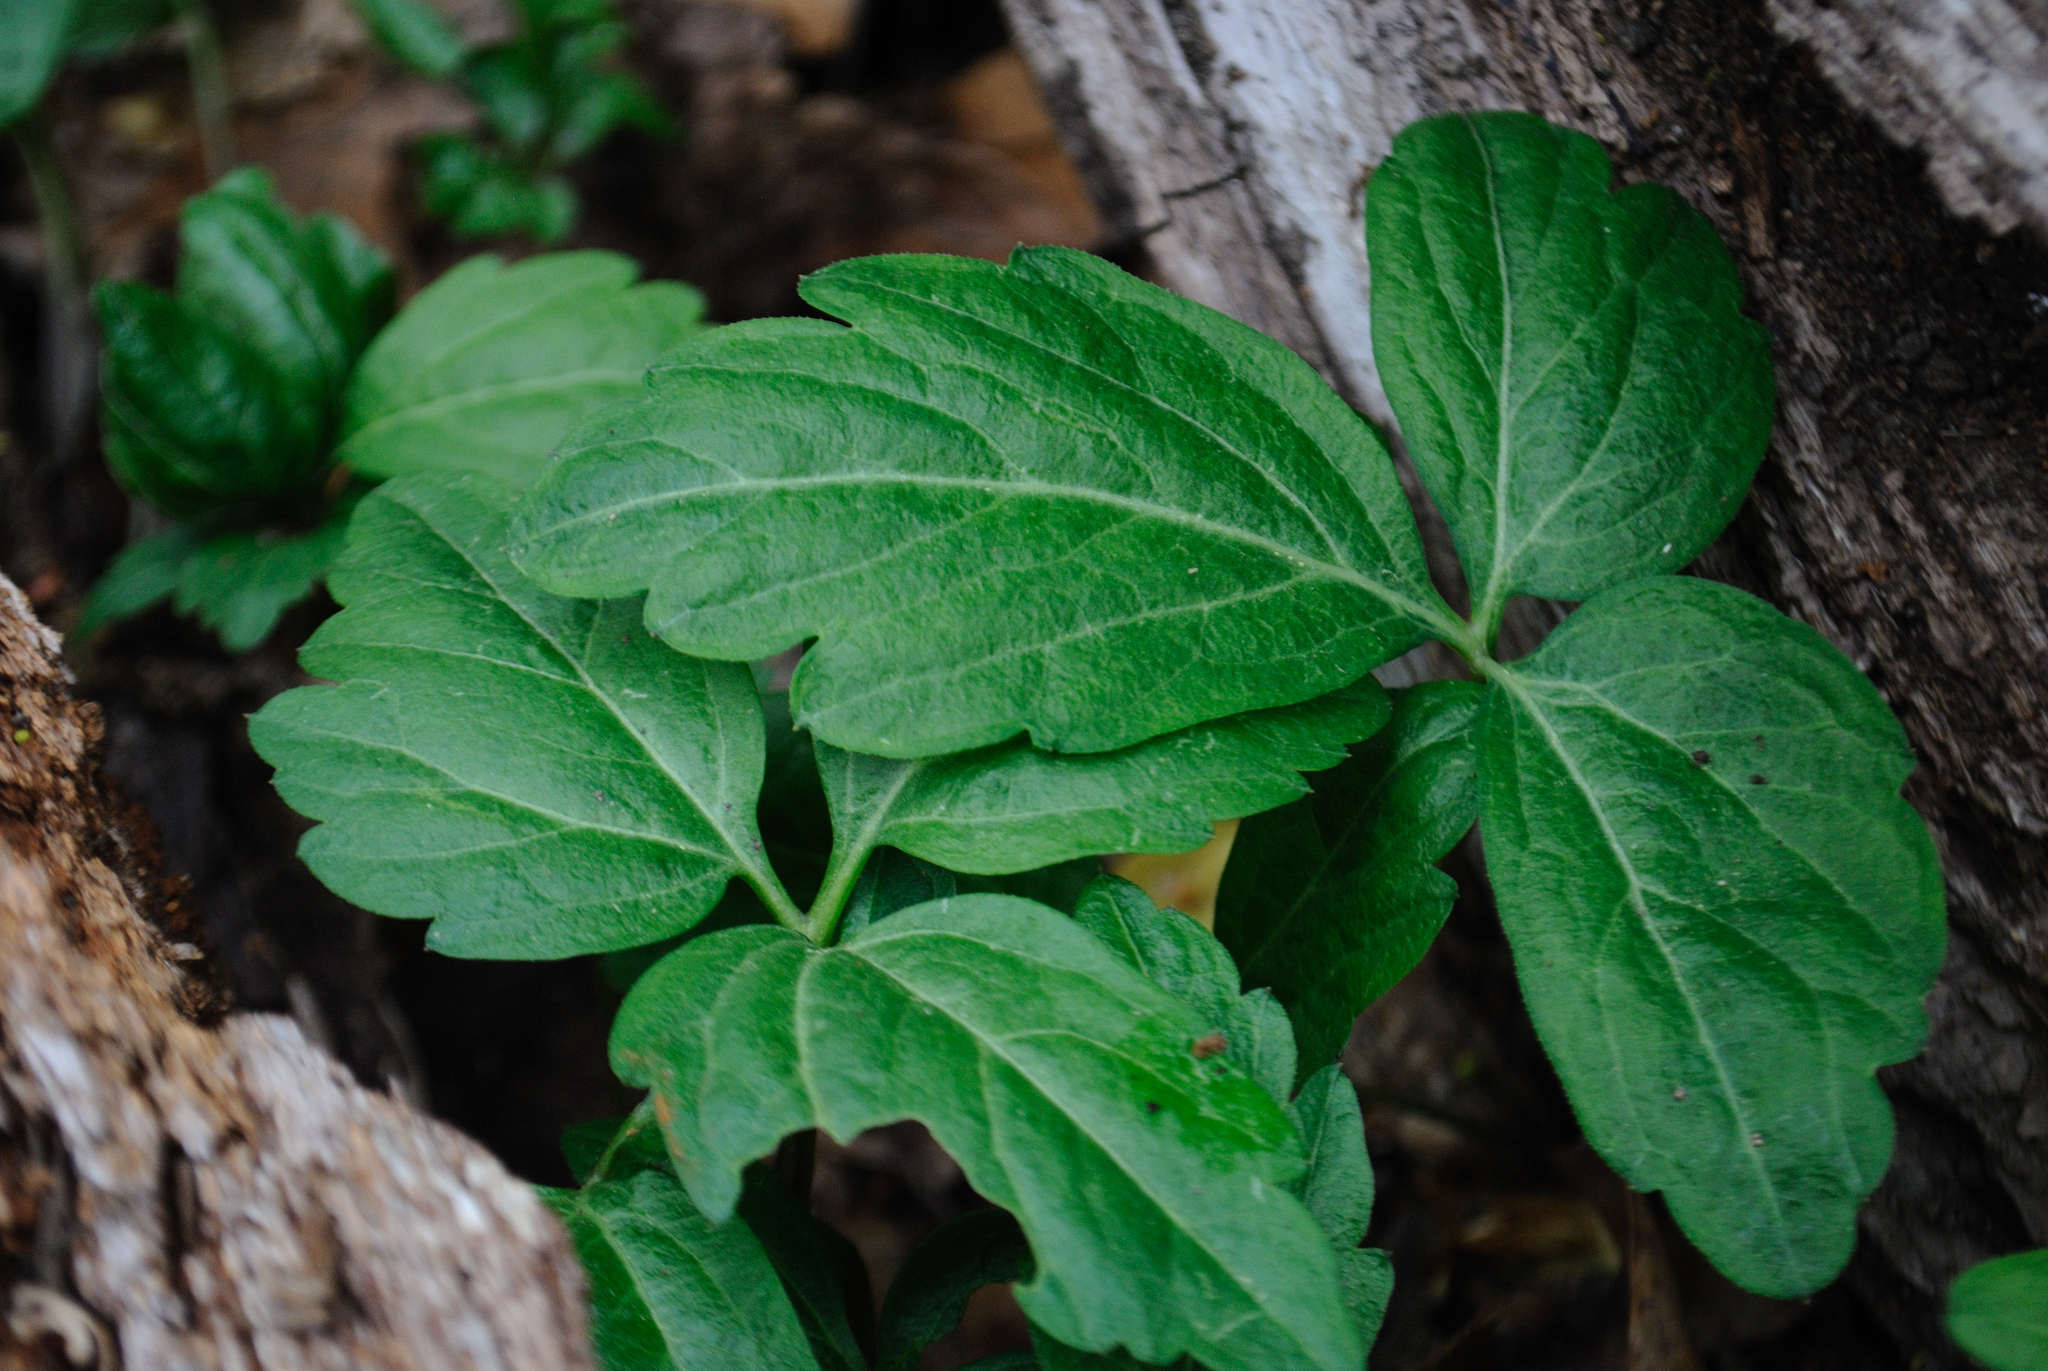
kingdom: Plantae
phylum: Tracheophyta
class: Magnoliopsida
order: Brassicales
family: Brassicaceae
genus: Cardamine
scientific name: Cardamine diphylla
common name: Broad-leaved toothwort
